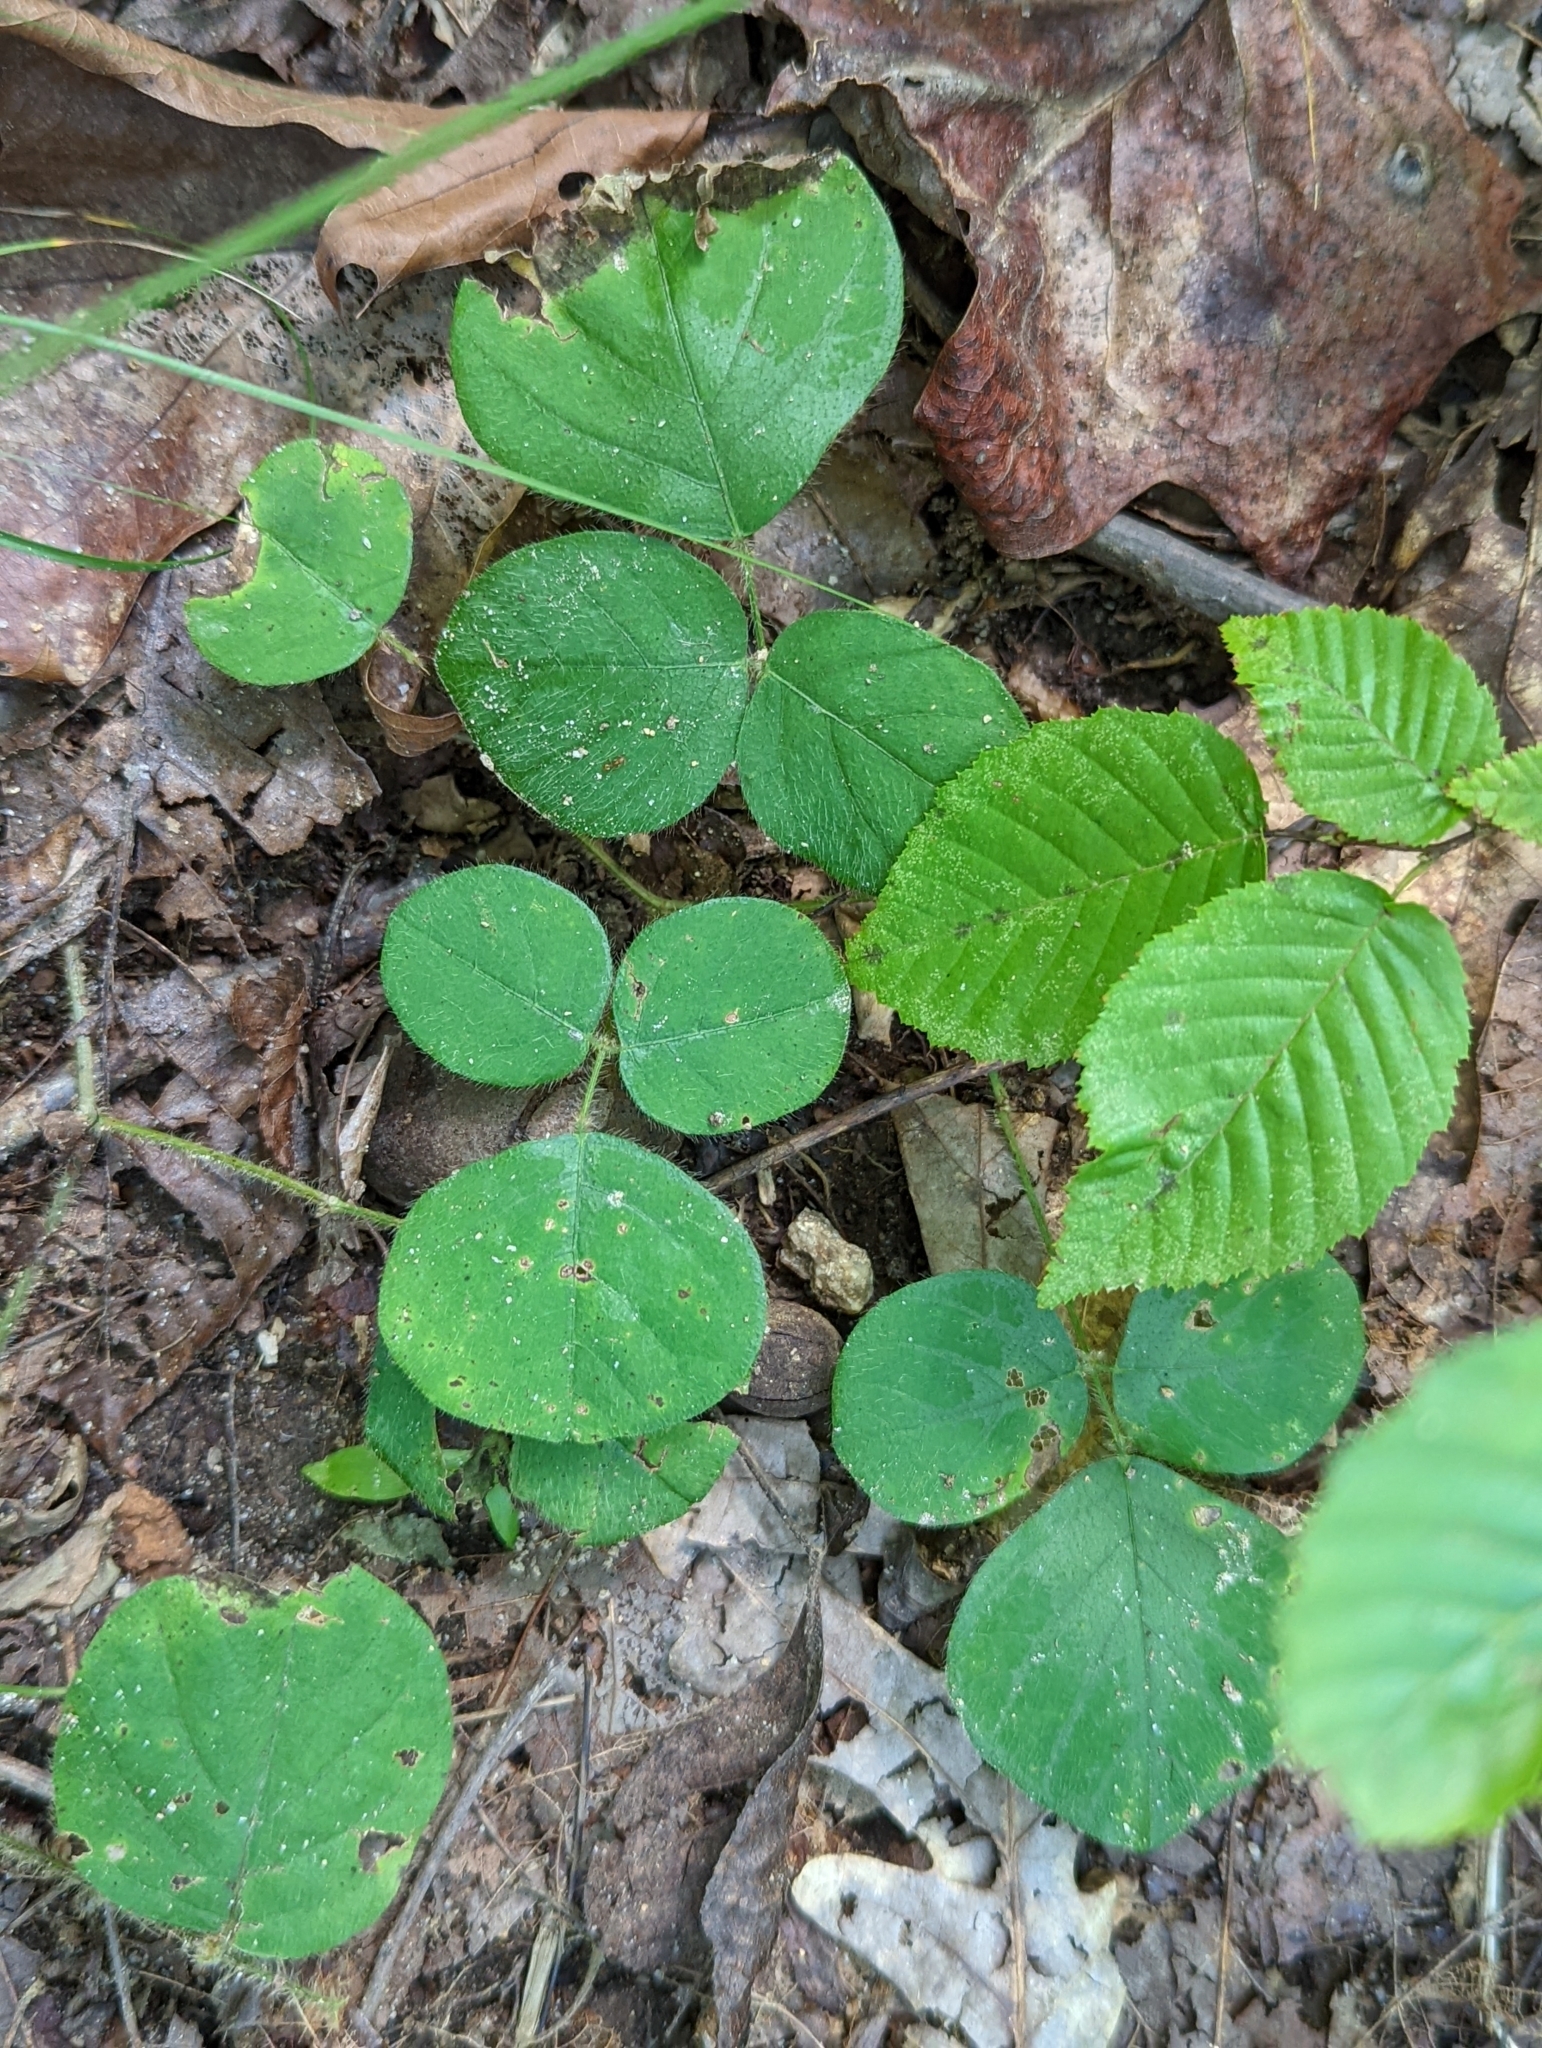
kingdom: Plantae
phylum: Tracheophyta
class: Magnoliopsida
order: Fabales
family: Fabaceae
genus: Desmodium
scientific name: Desmodium rotundifolium
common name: Dollarleaf
